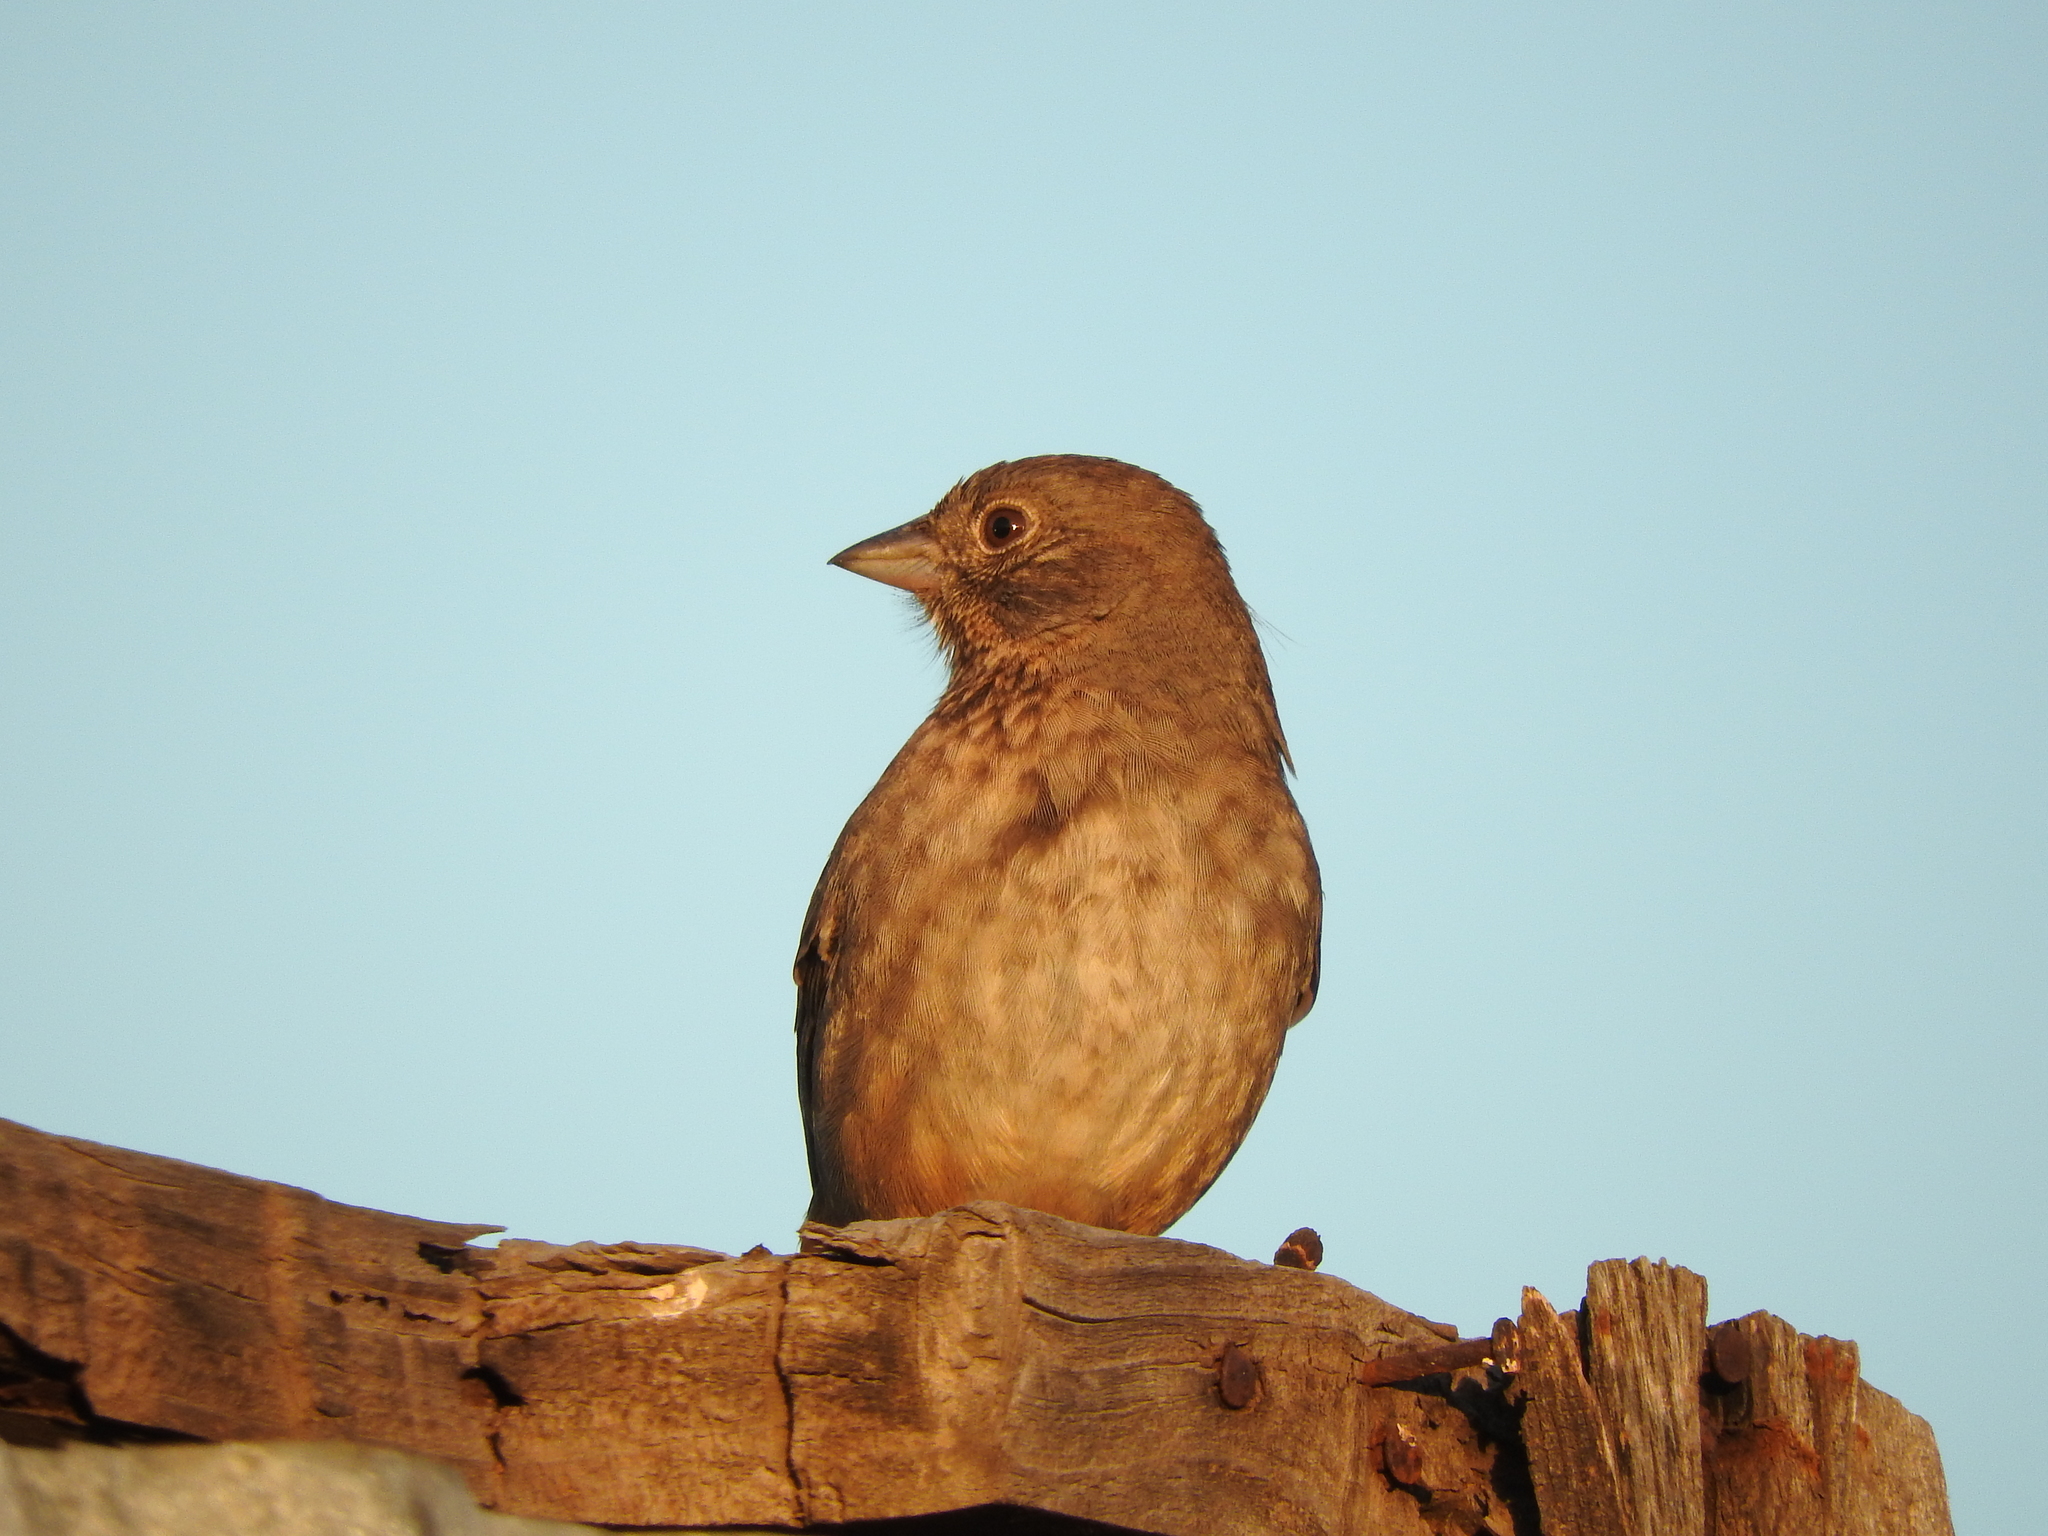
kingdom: Animalia
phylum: Chordata
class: Aves
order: Passeriformes
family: Passerellidae
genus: Melozone
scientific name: Melozone fusca
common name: Canyon towhee
